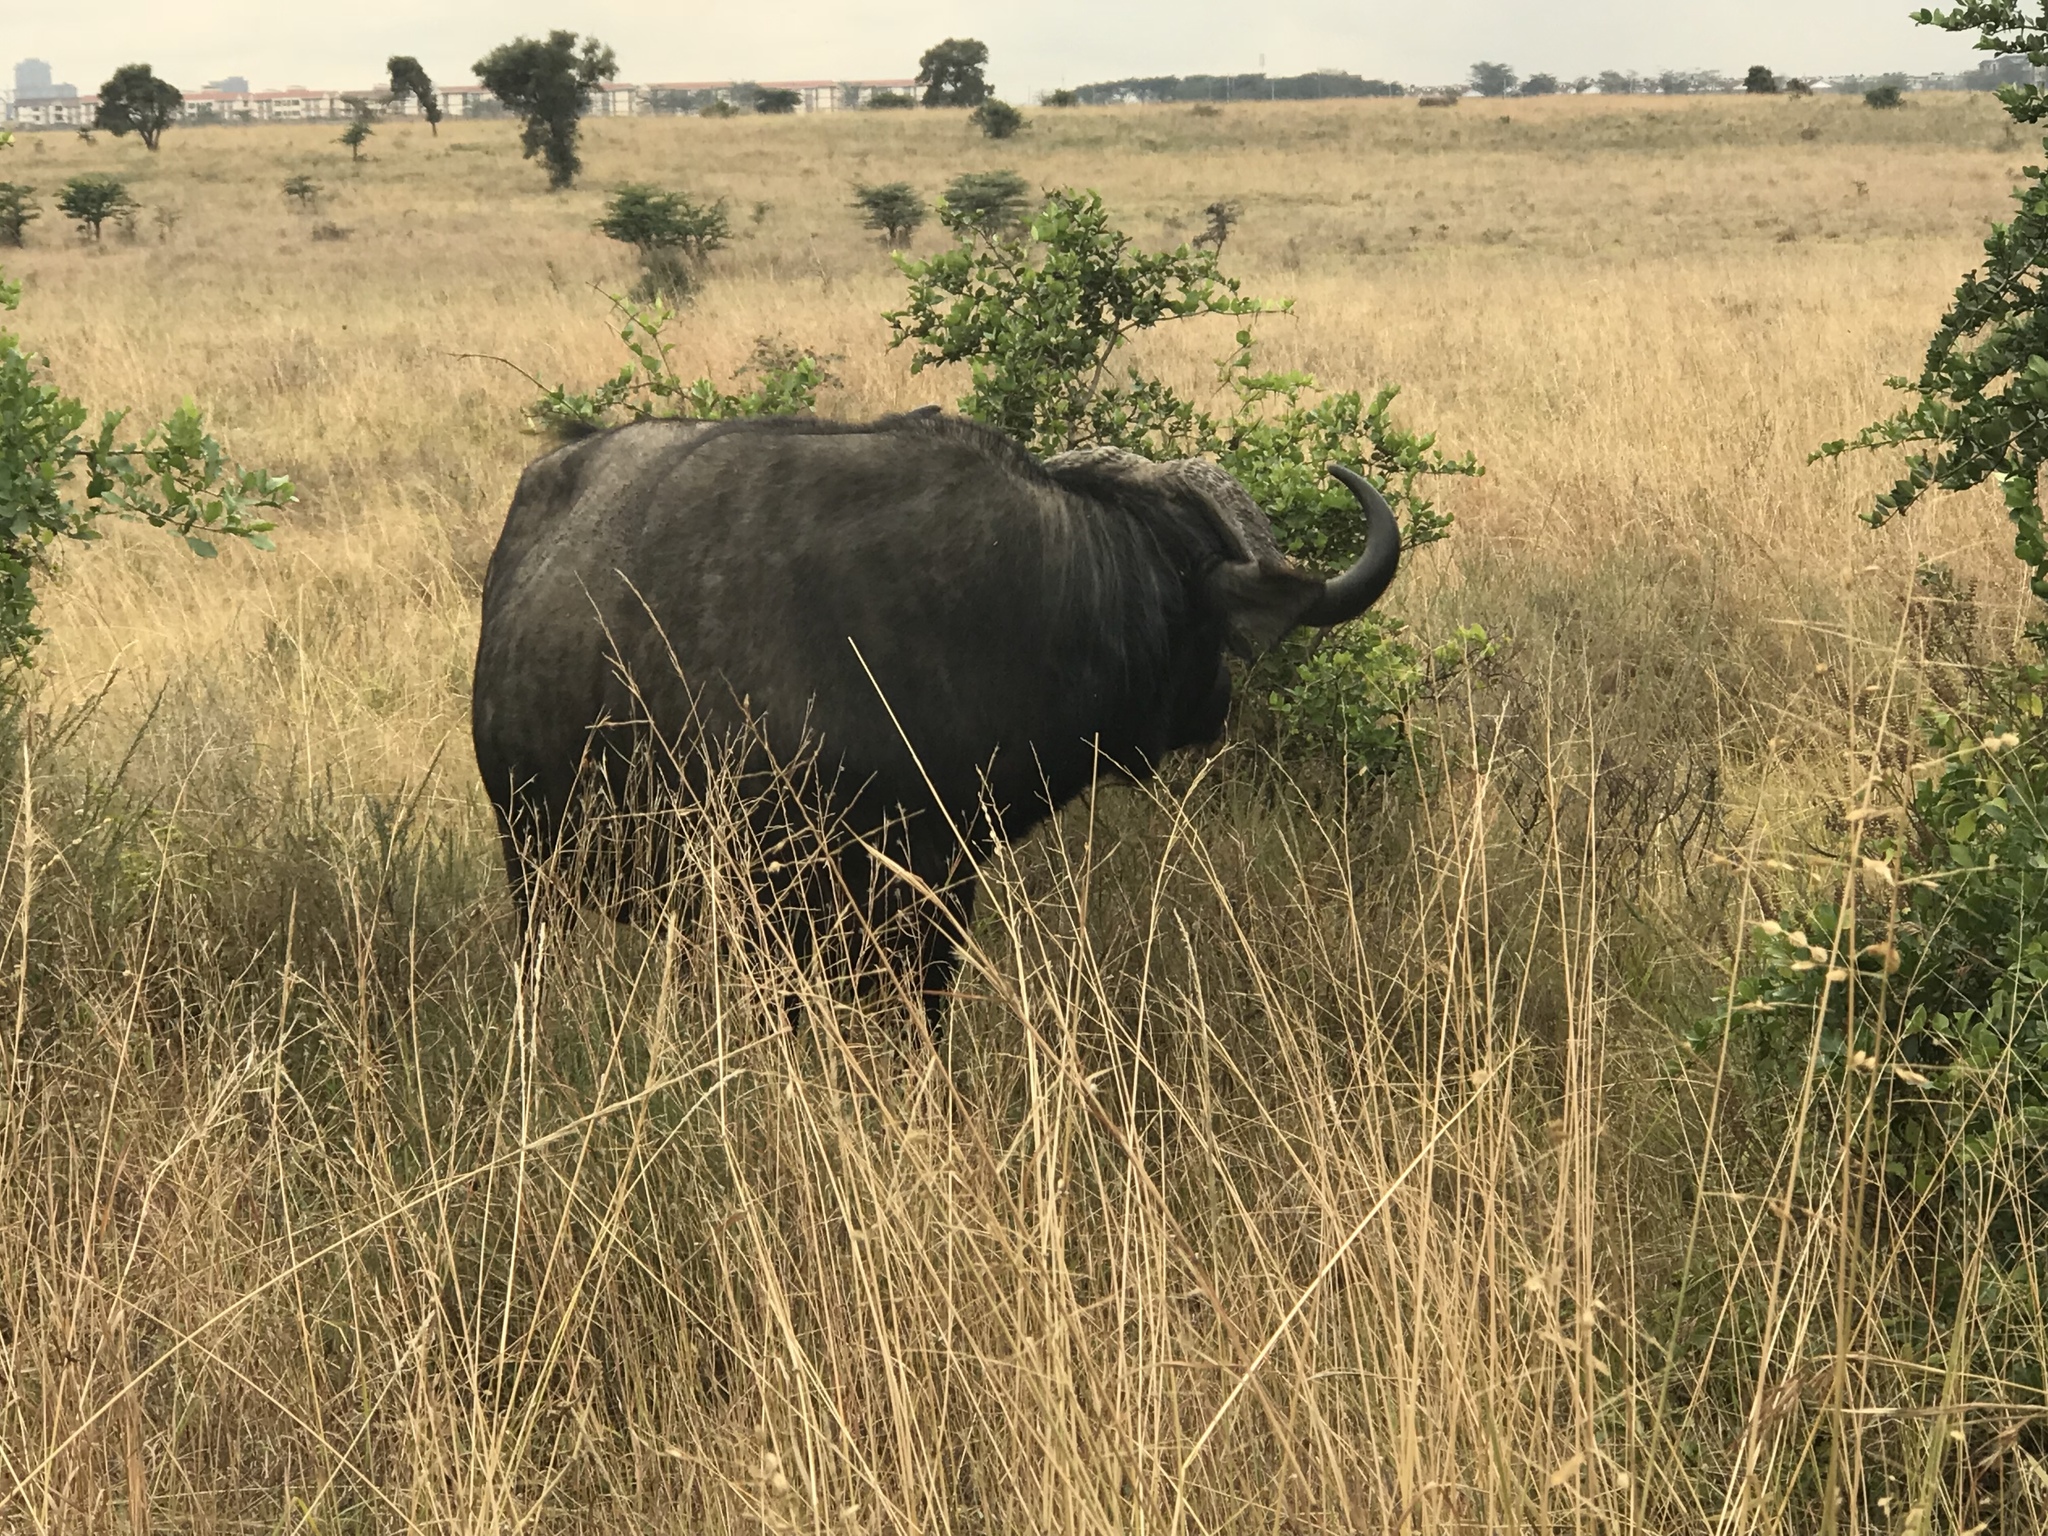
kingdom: Animalia
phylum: Chordata
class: Mammalia
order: Artiodactyla
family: Bovidae
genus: Syncerus
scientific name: Syncerus caffer
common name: African buffalo
